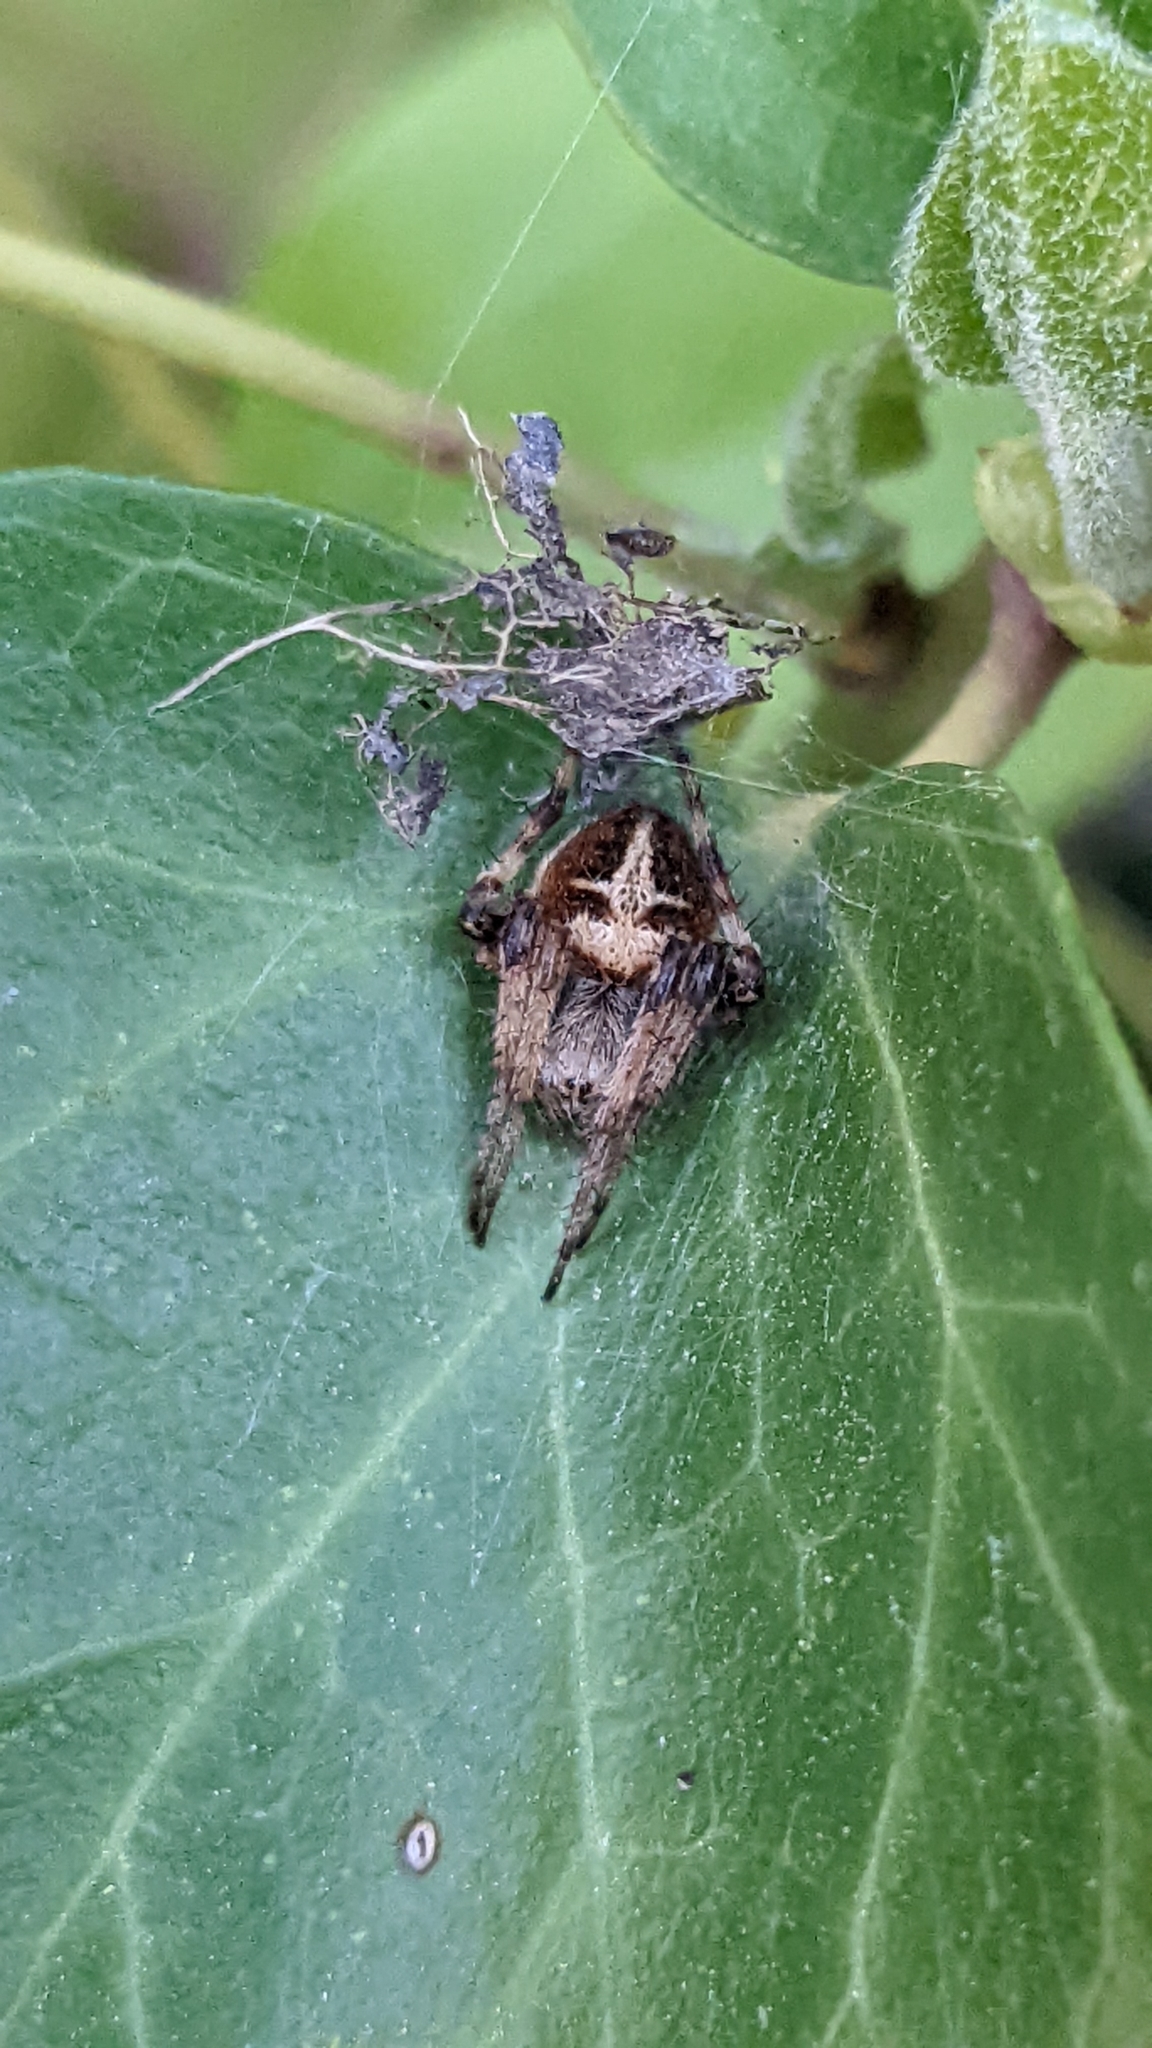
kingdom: Animalia
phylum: Arthropoda
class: Arachnida
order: Araneae
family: Araneidae
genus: Agalenatea
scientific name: Agalenatea redii
